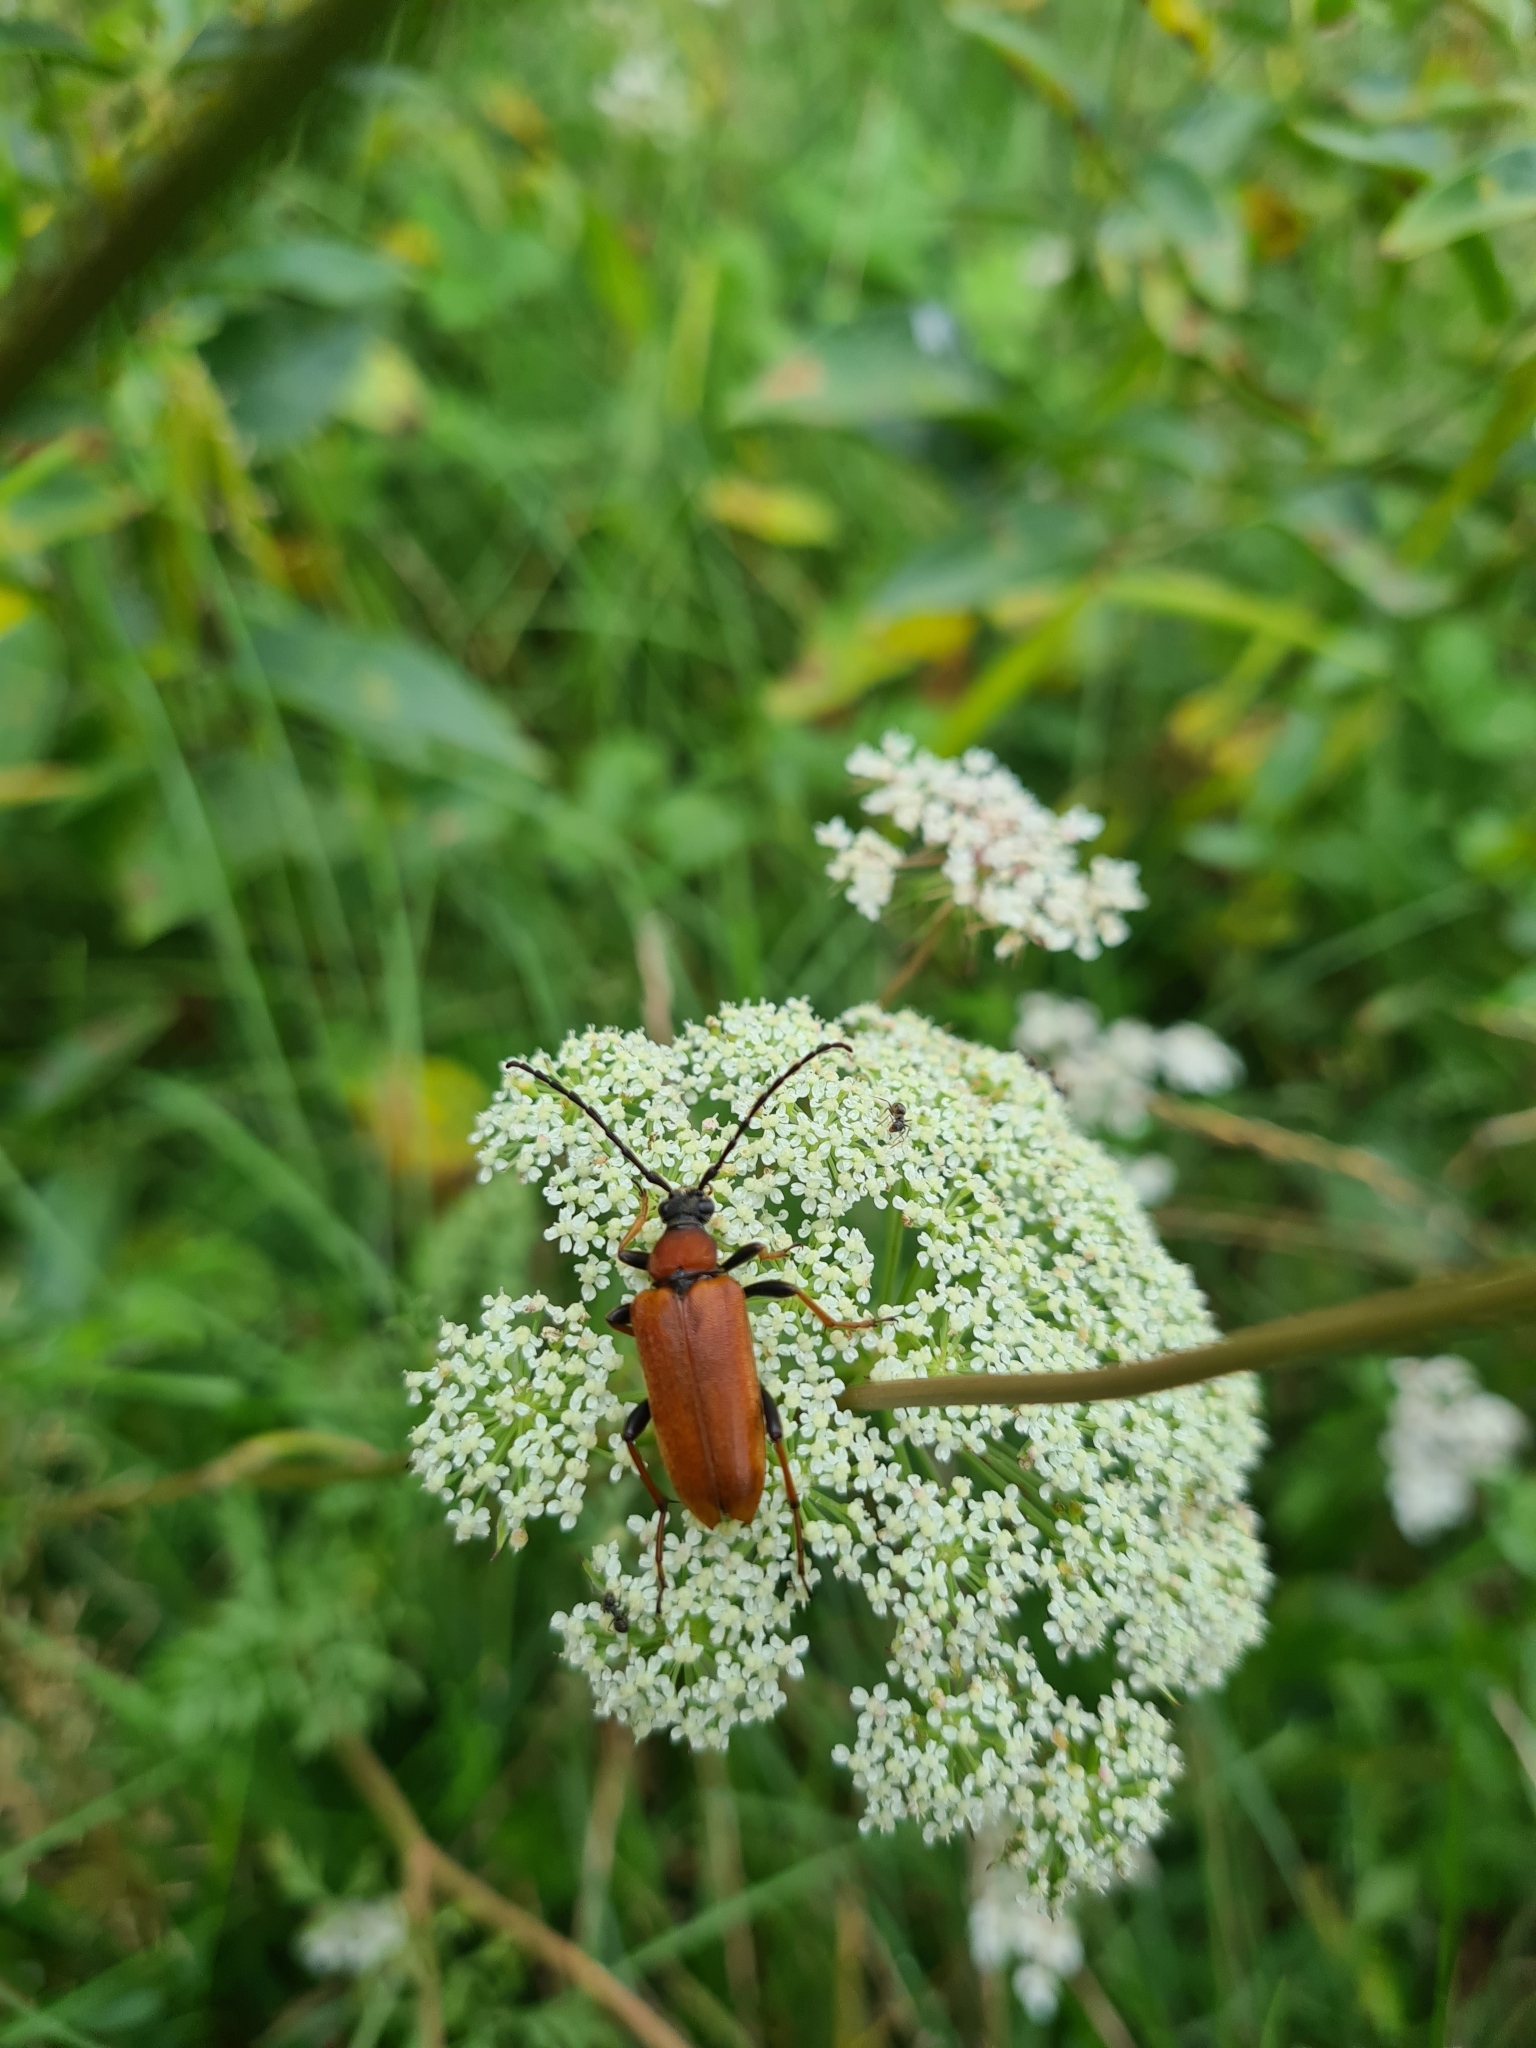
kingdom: Animalia
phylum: Arthropoda
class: Insecta
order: Coleoptera
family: Cerambycidae
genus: Stictoleptura
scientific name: Stictoleptura rubra
